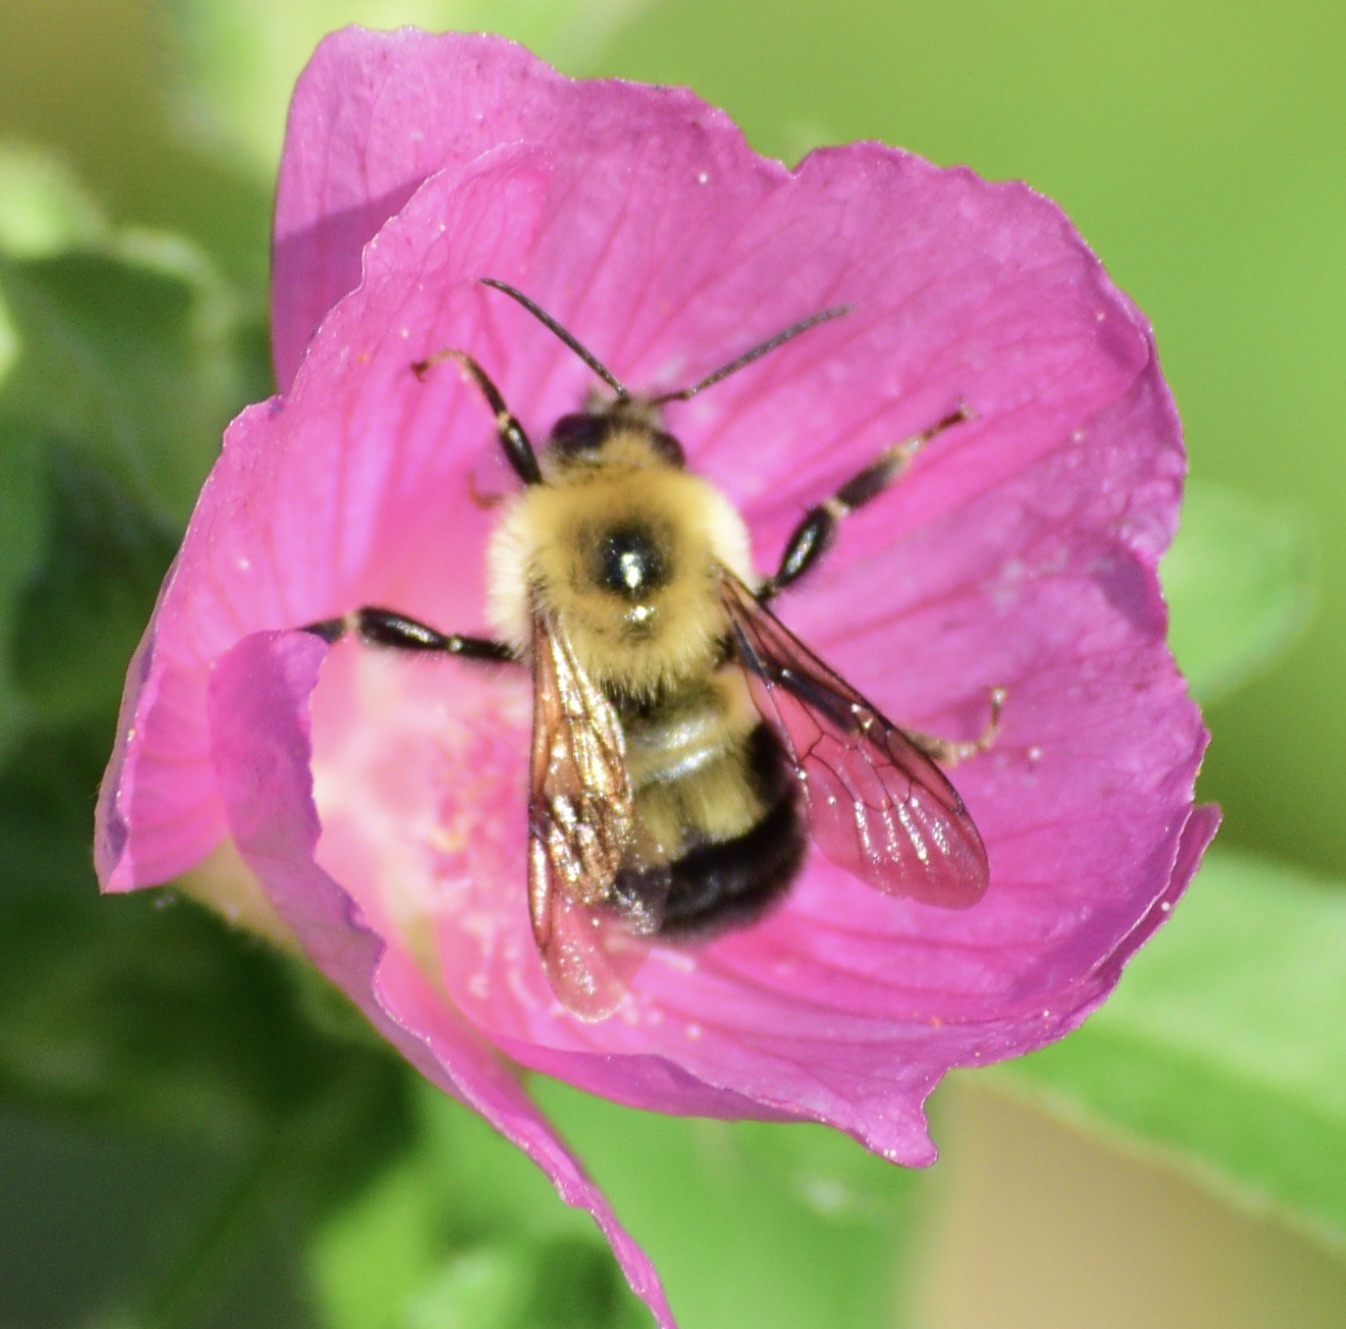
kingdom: Animalia
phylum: Arthropoda
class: Insecta
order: Hymenoptera
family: Apidae
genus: Bombus
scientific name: Bombus bimaculatus
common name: Two-spotted bumble bee
